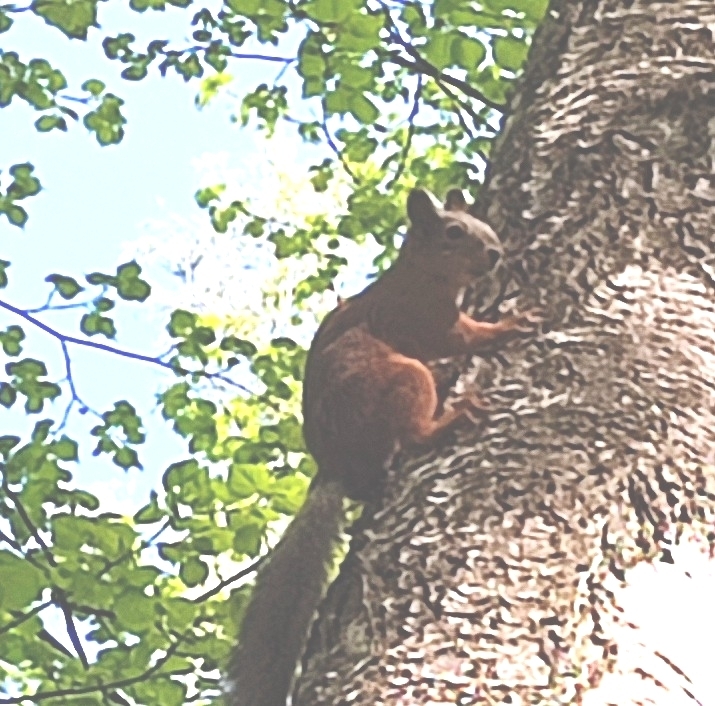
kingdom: Animalia
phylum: Chordata
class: Mammalia
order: Rodentia
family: Sciuridae
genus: Sciurus
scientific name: Sciurus vulgaris
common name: Eurasian red squirrel
